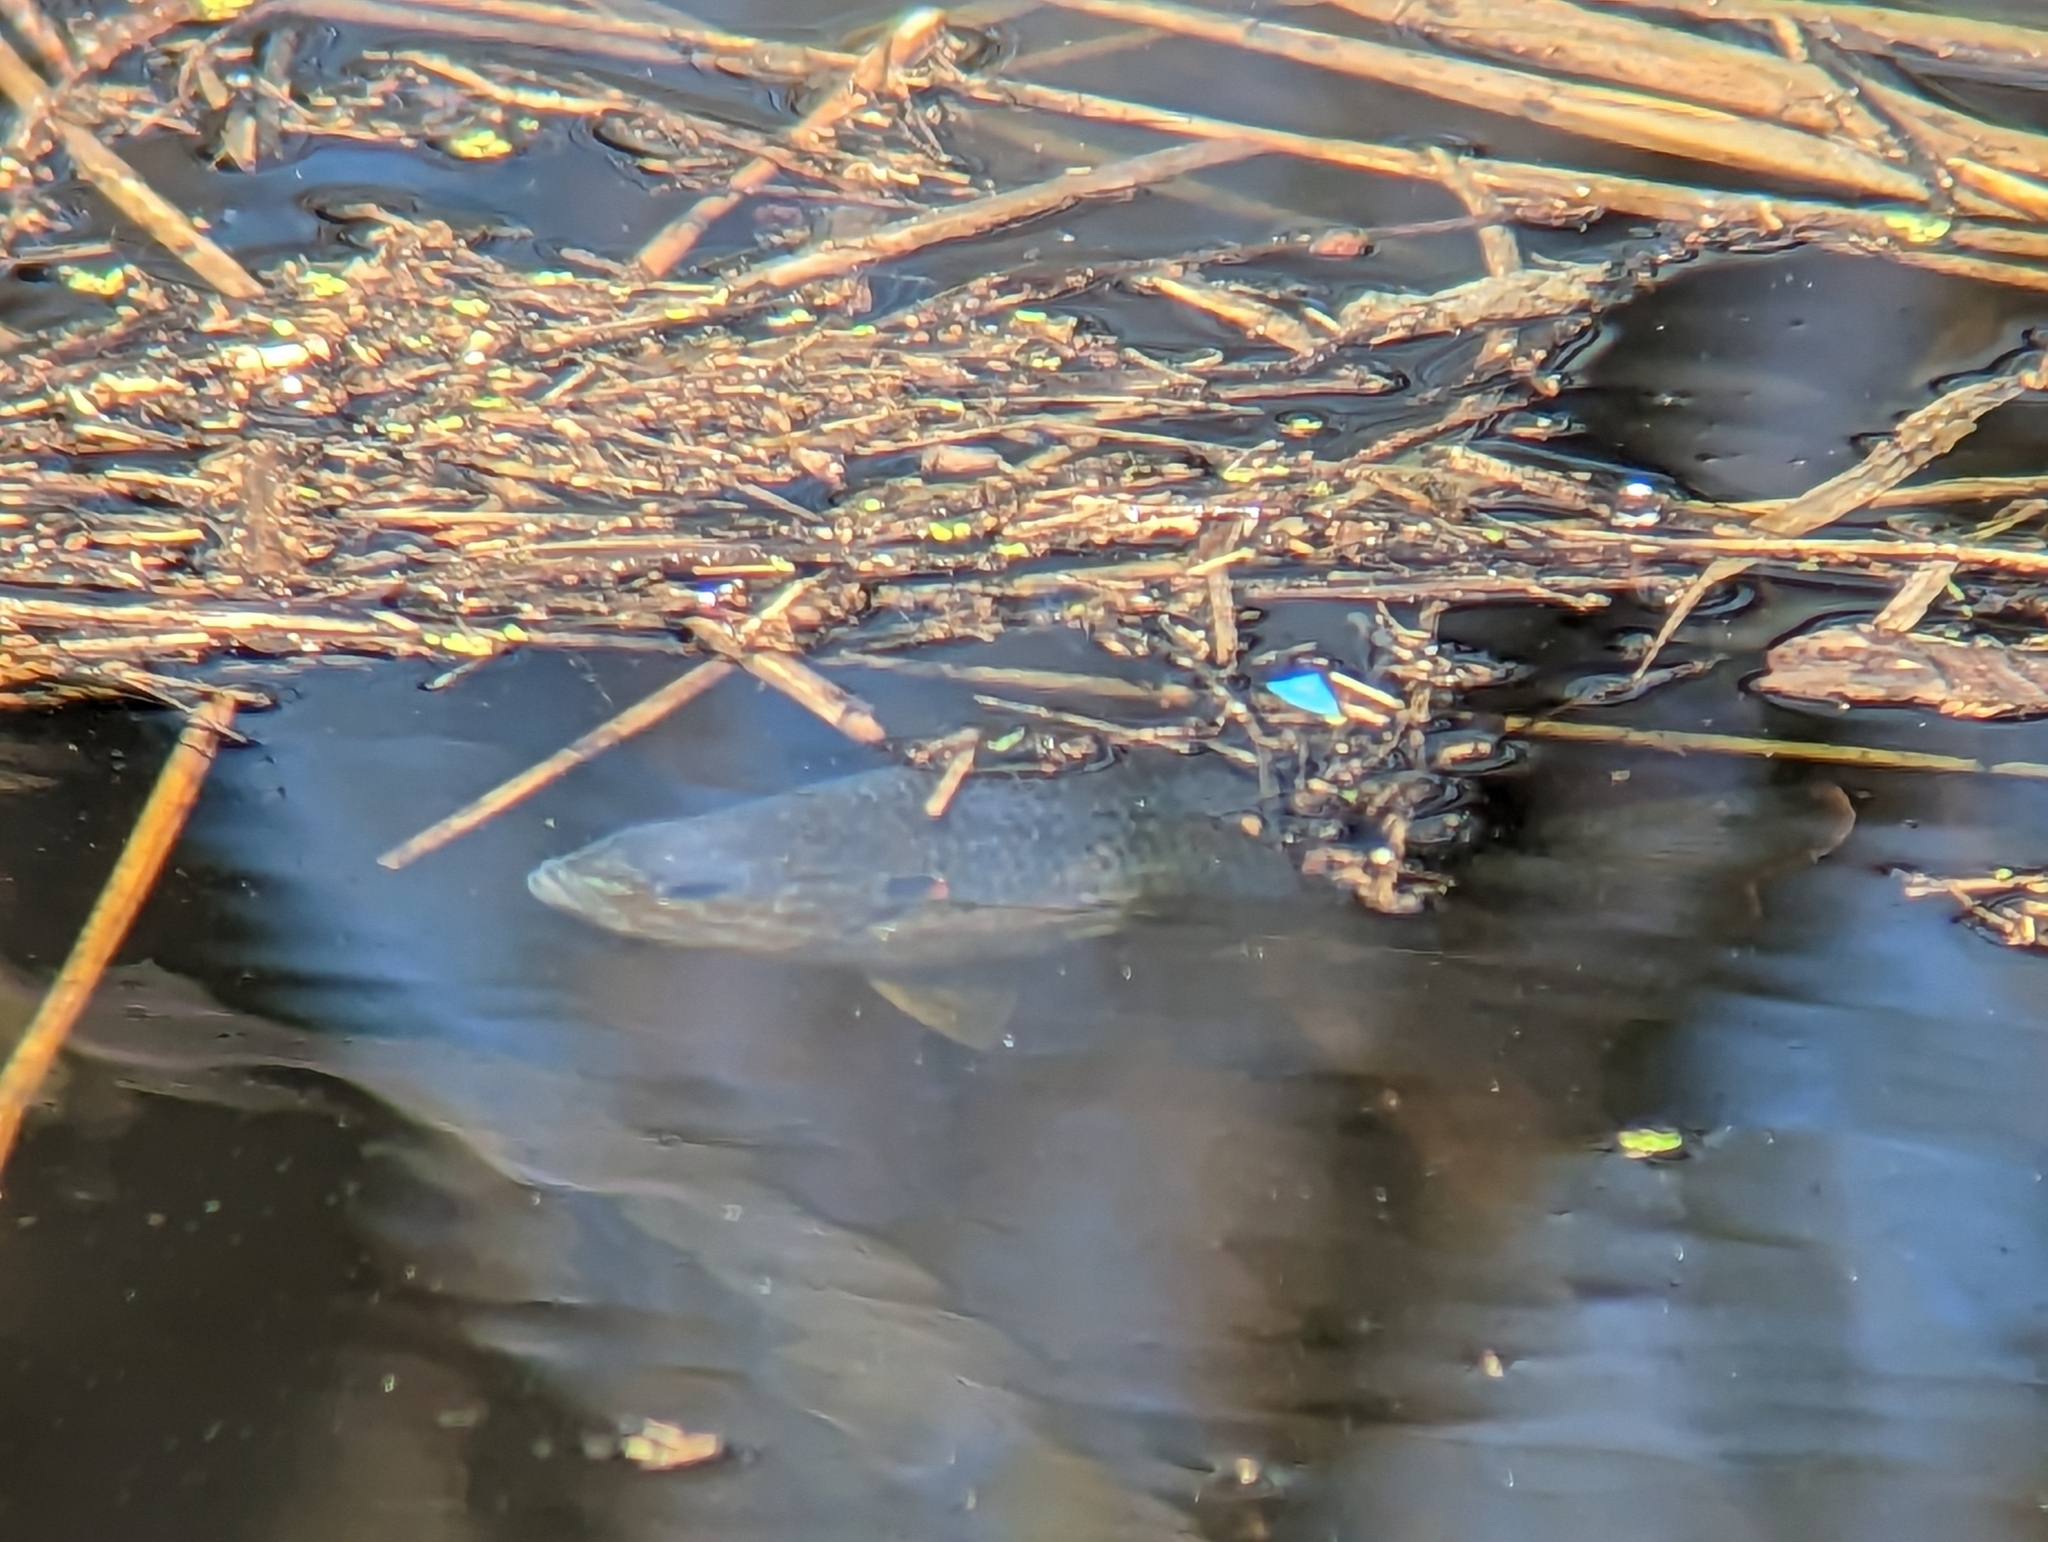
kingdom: Animalia
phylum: Chordata
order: Perciformes
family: Centrarchidae
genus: Lepomis
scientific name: Lepomis gibbosus
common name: Pumpkinseed
